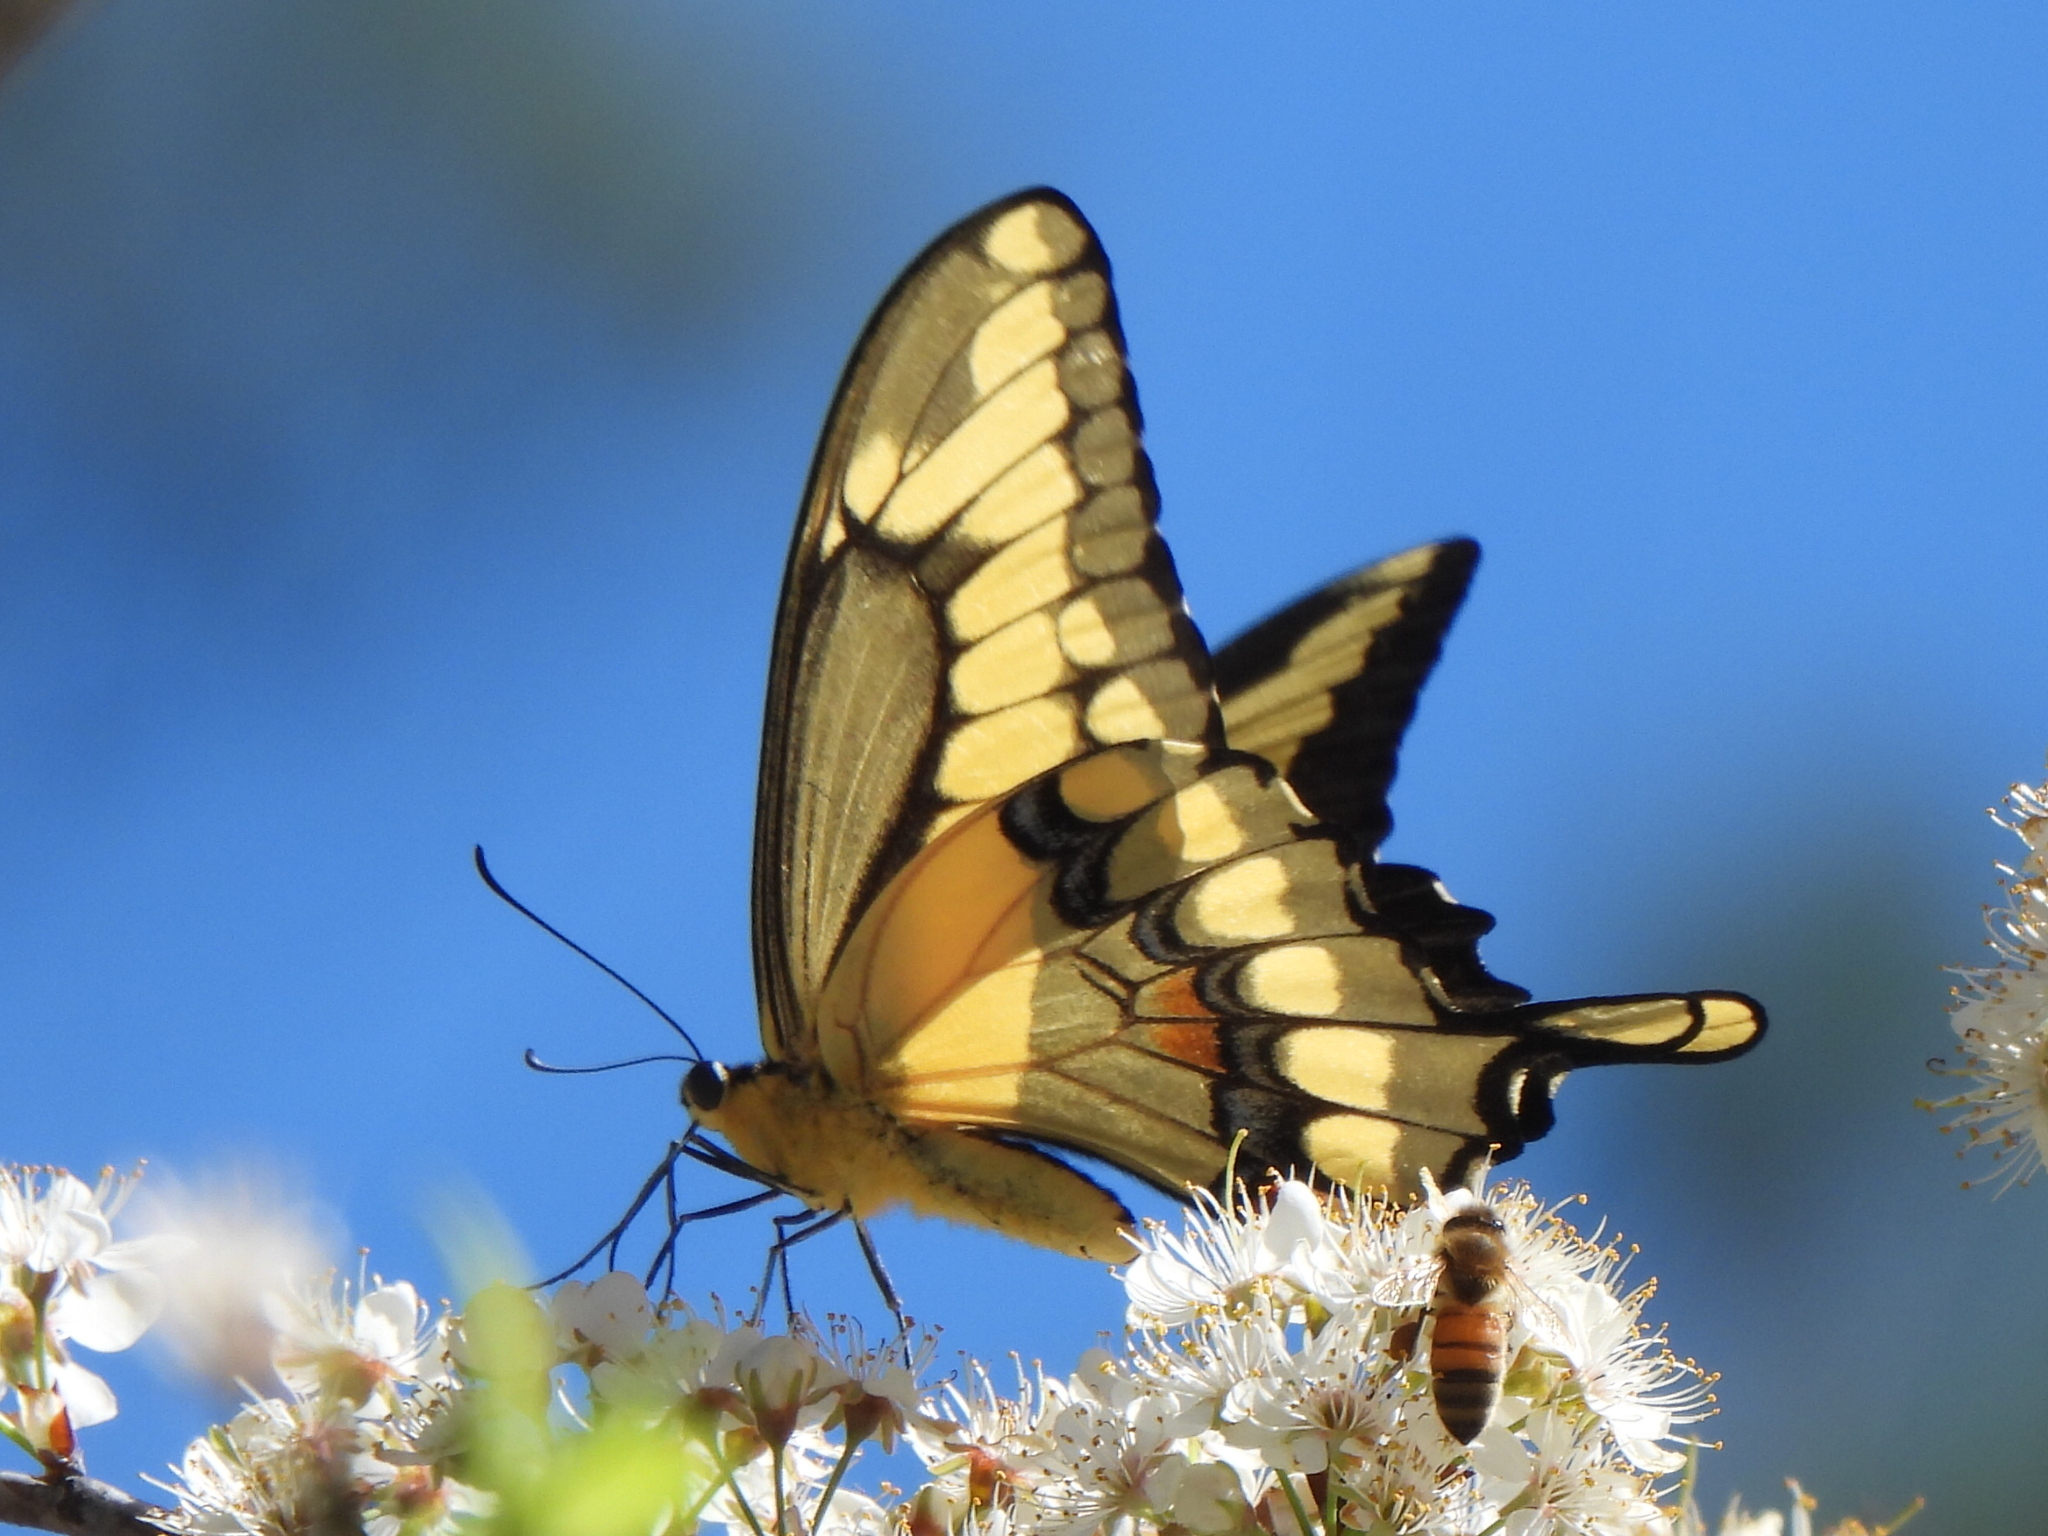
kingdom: Animalia
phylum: Arthropoda
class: Insecta
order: Lepidoptera
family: Papilionidae
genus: Papilio
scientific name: Papilio cresphontes
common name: Giant swallowtail
